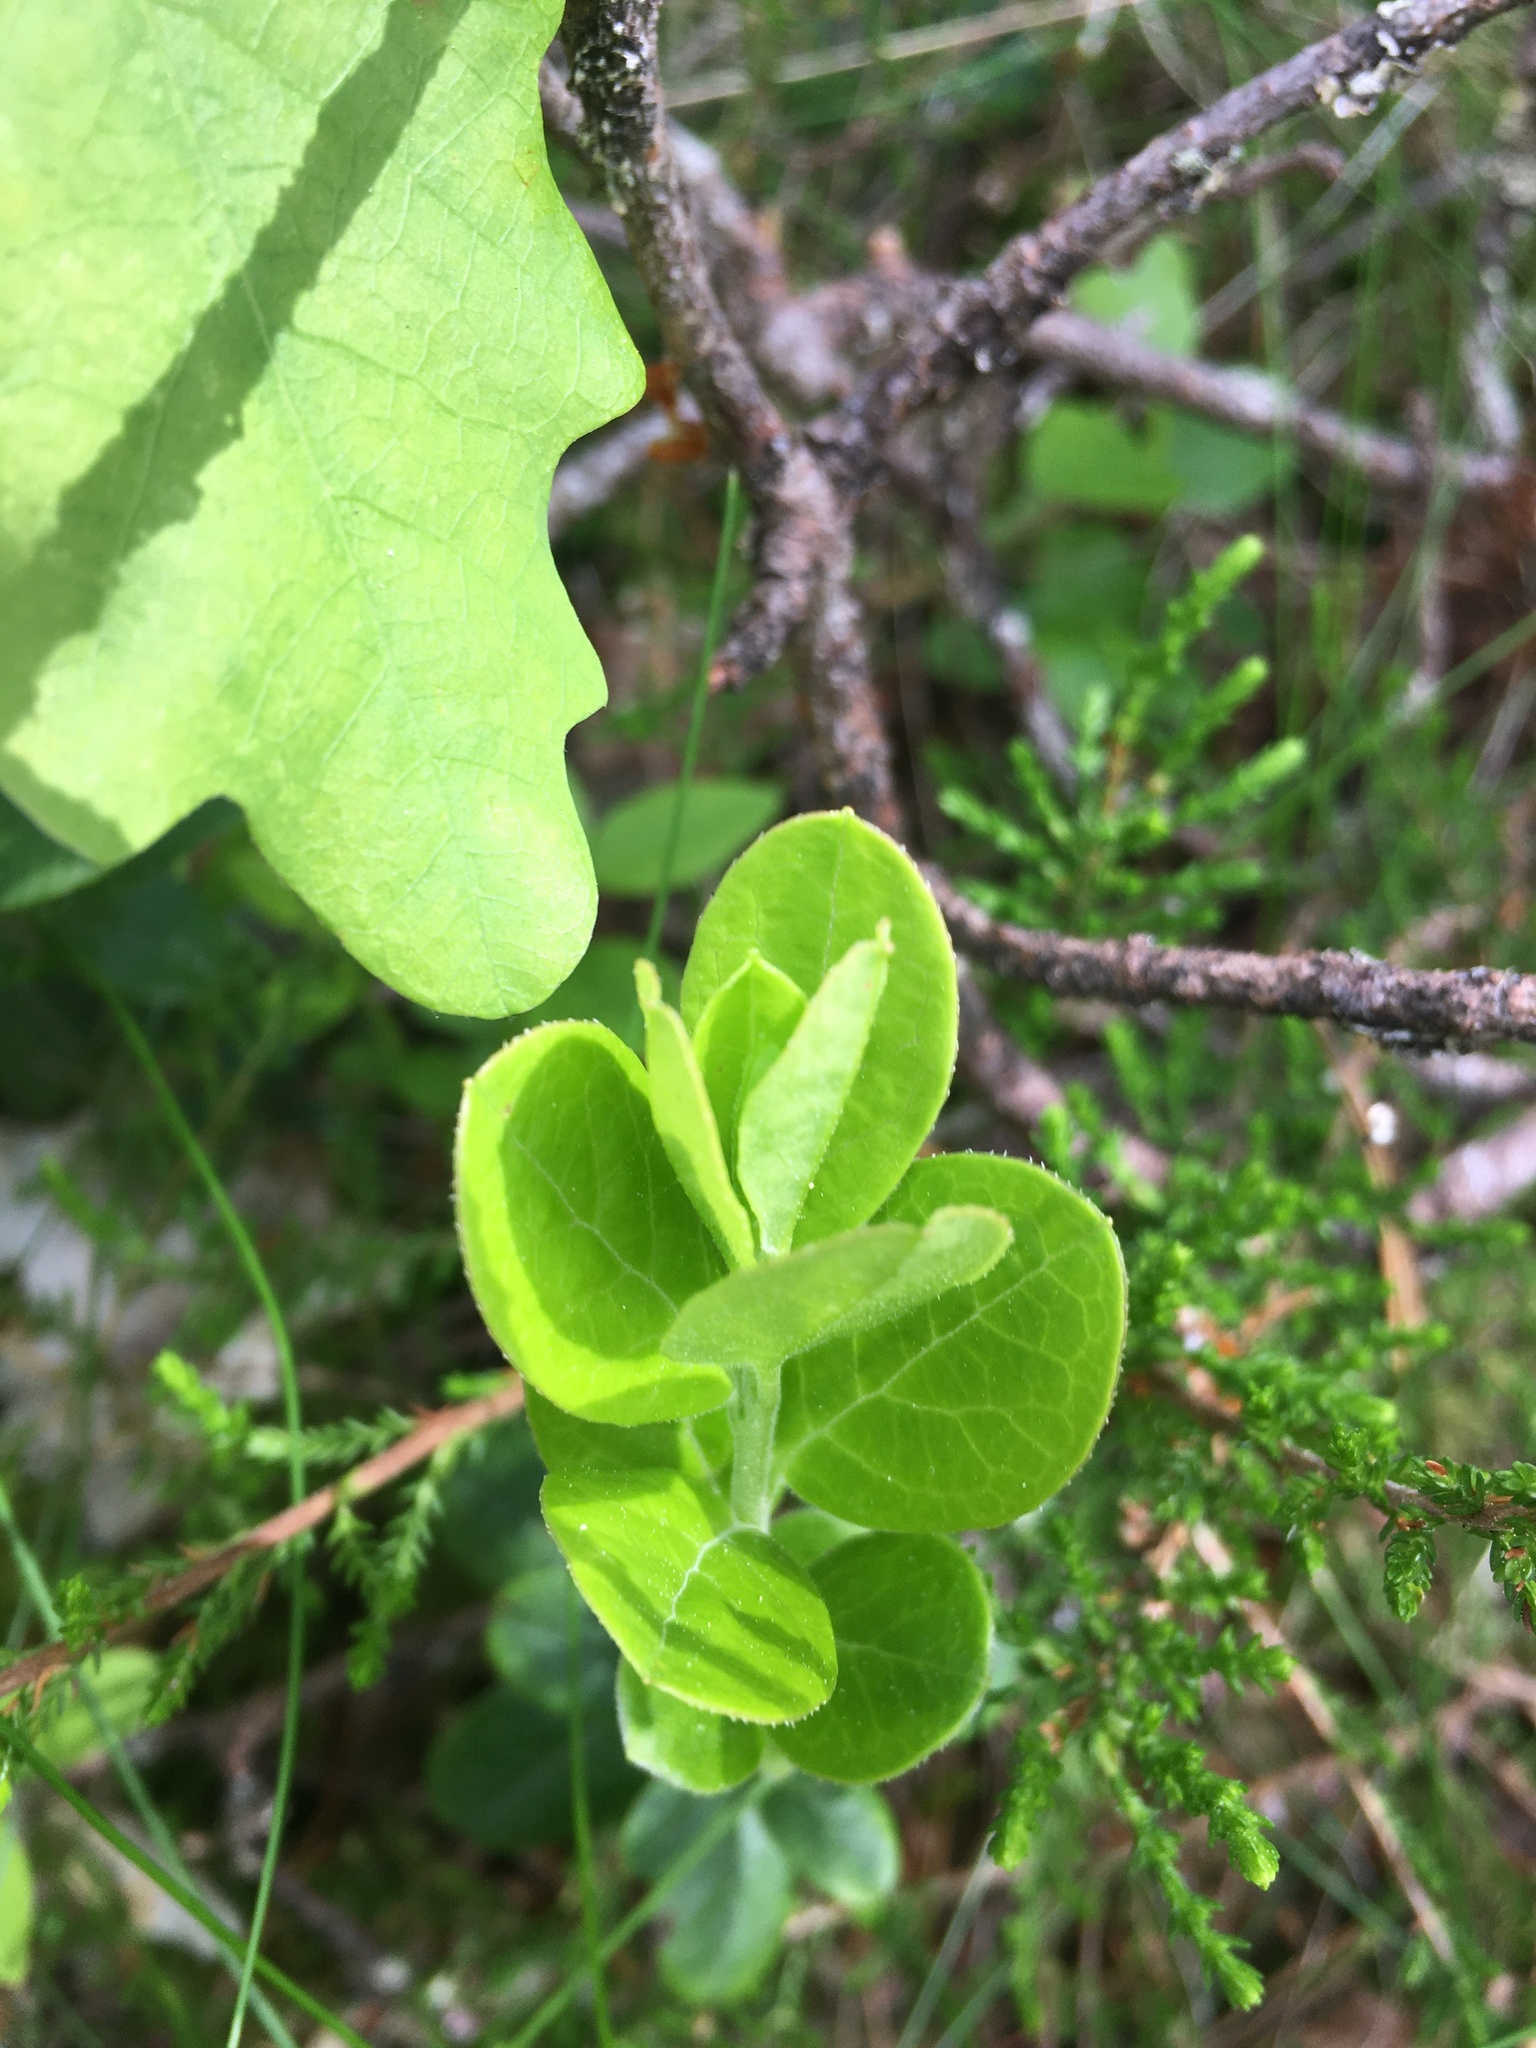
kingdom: Plantae
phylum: Tracheophyta
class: Magnoliopsida
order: Ericales
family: Ericaceae
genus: Vaccinium
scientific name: Vaccinium vitis-idaea
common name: Cowberry
